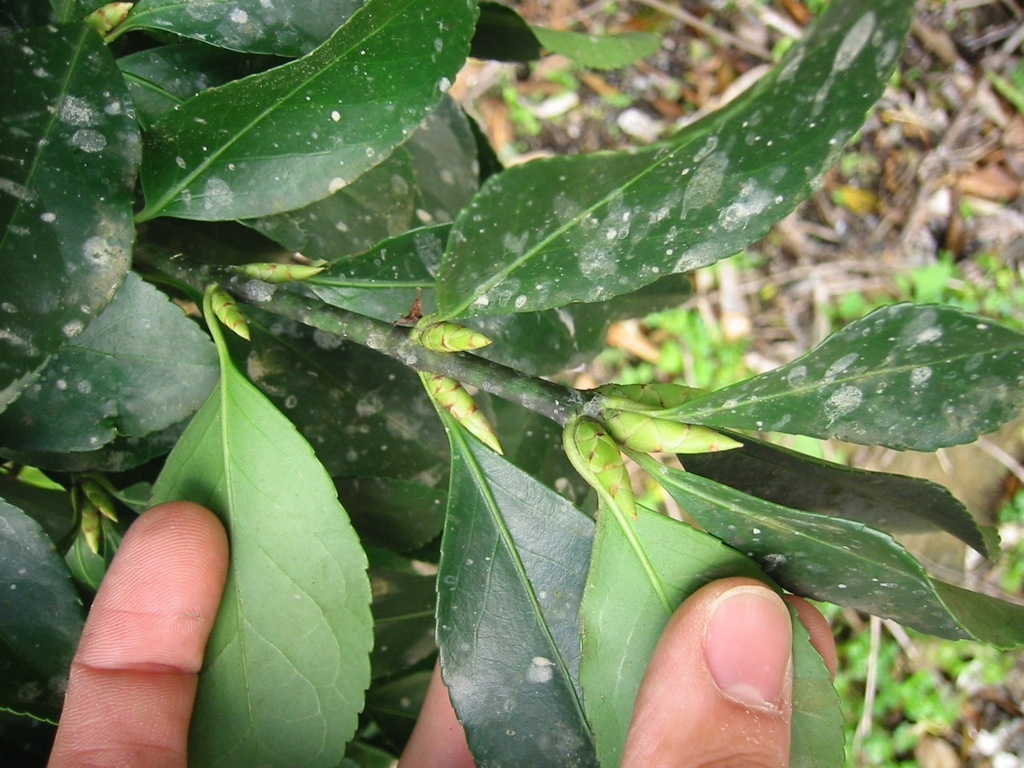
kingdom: Plantae
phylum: Tracheophyta
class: Magnoliopsida
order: Celastrales
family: Celastraceae
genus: Euonymus
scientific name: Euonymus japonicus
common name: Japanese spindletree
